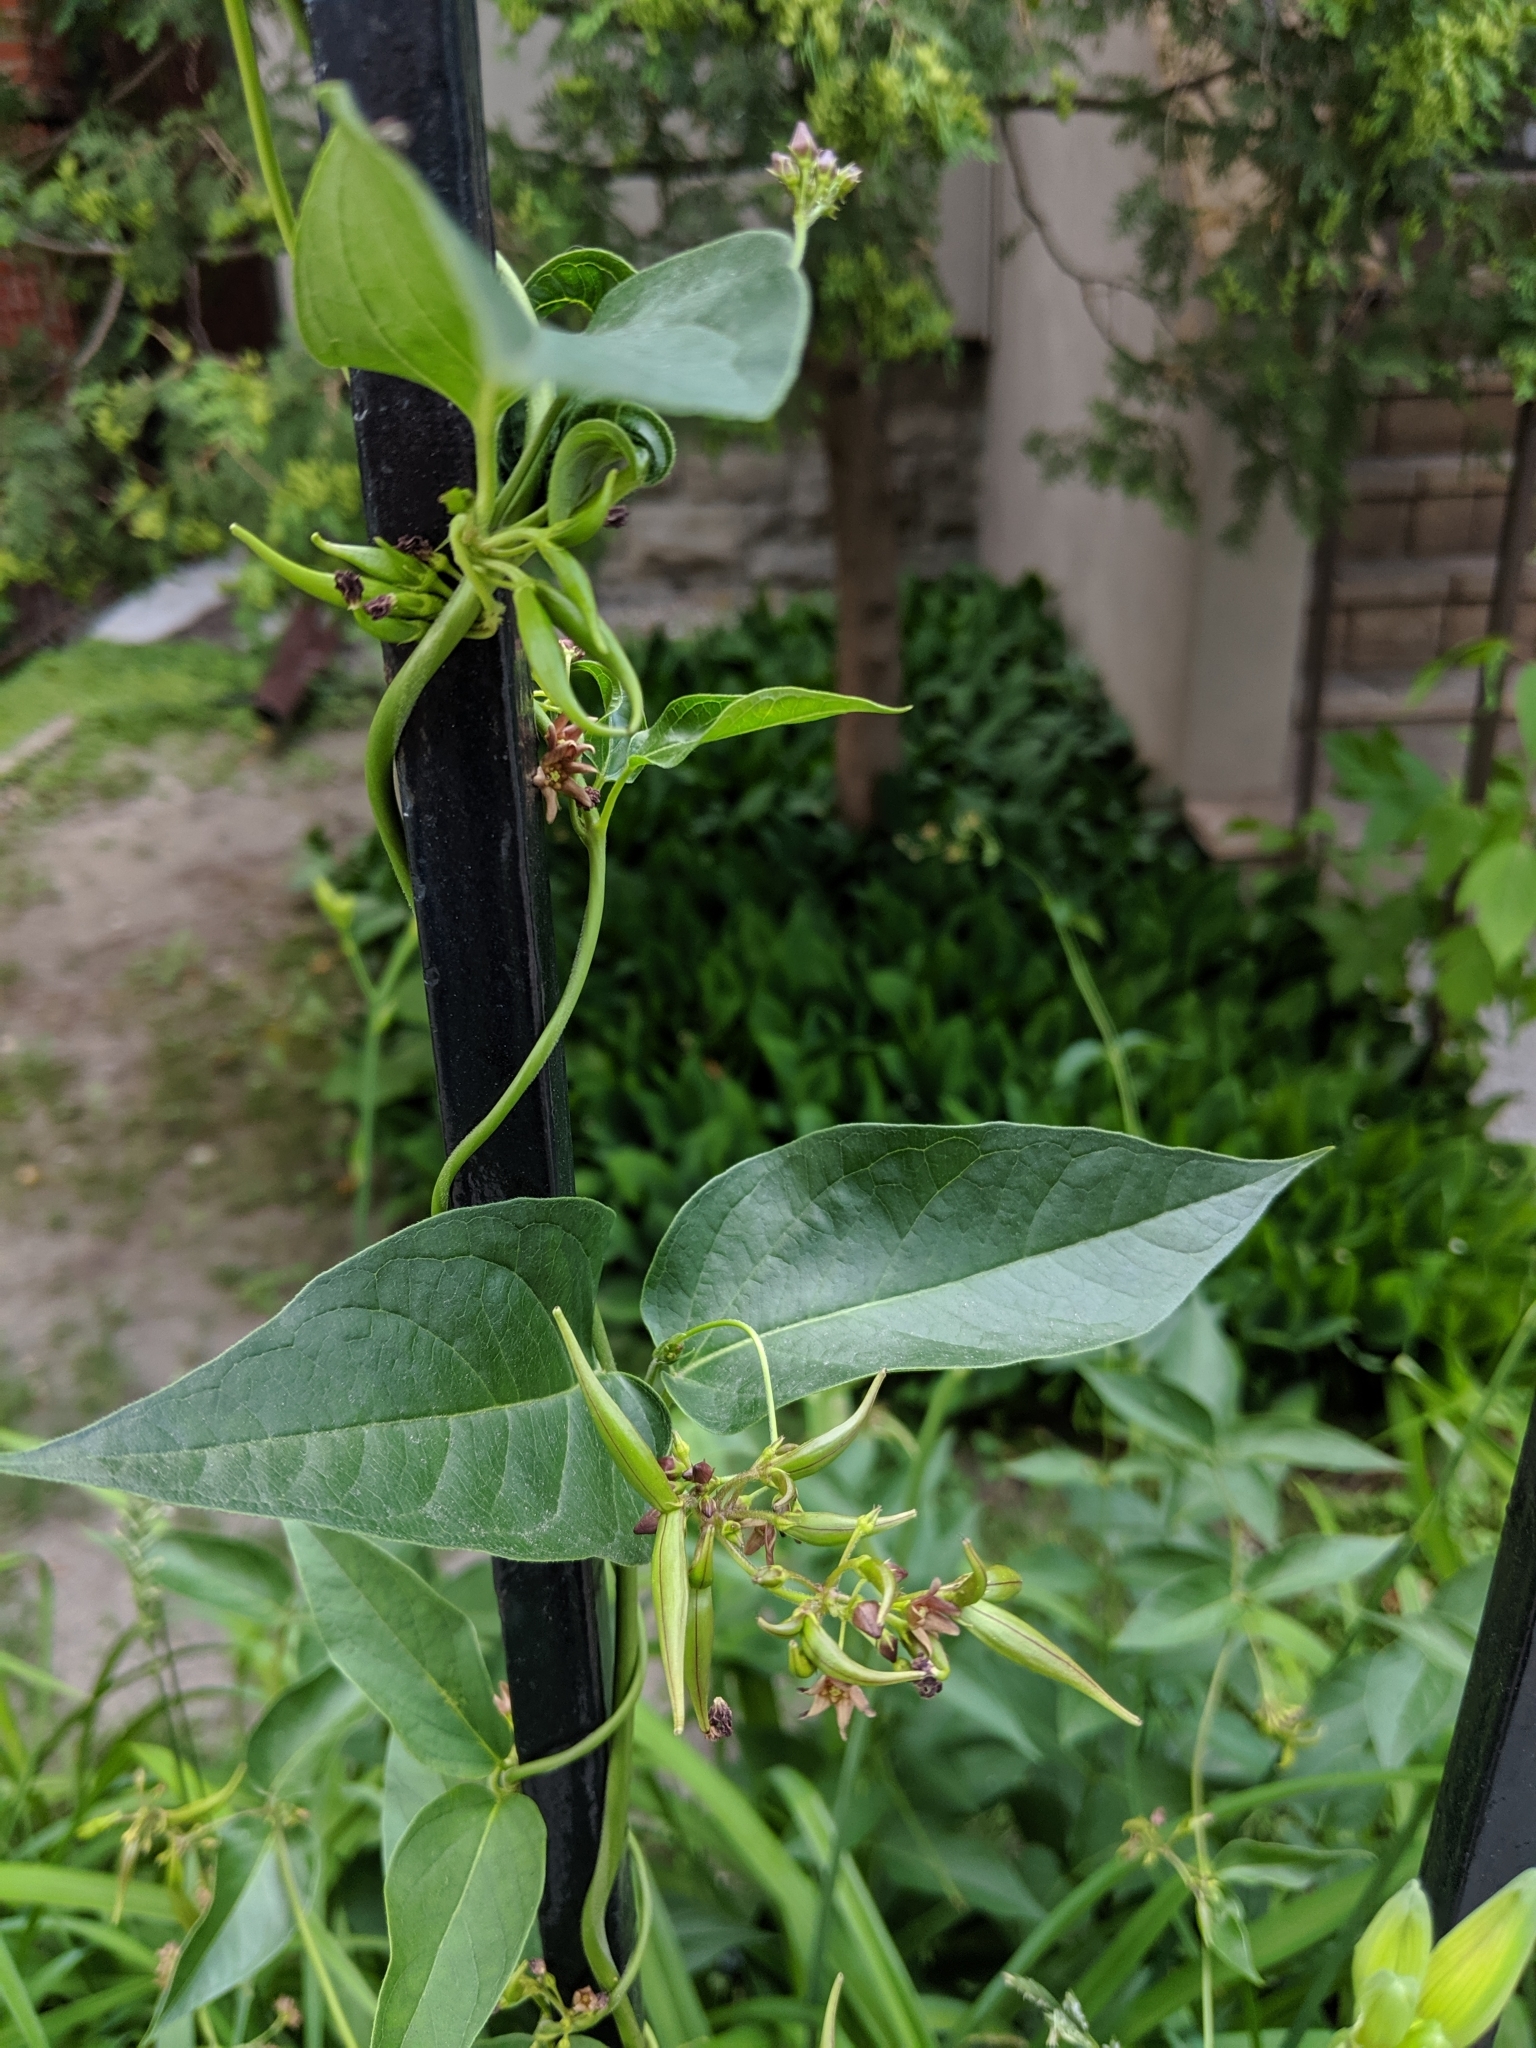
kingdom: Plantae
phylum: Tracheophyta
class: Magnoliopsida
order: Gentianales
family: Apocynaceae
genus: Vincetoxicum
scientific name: Vincetoxicum rossicum
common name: Dog-strangling vine
